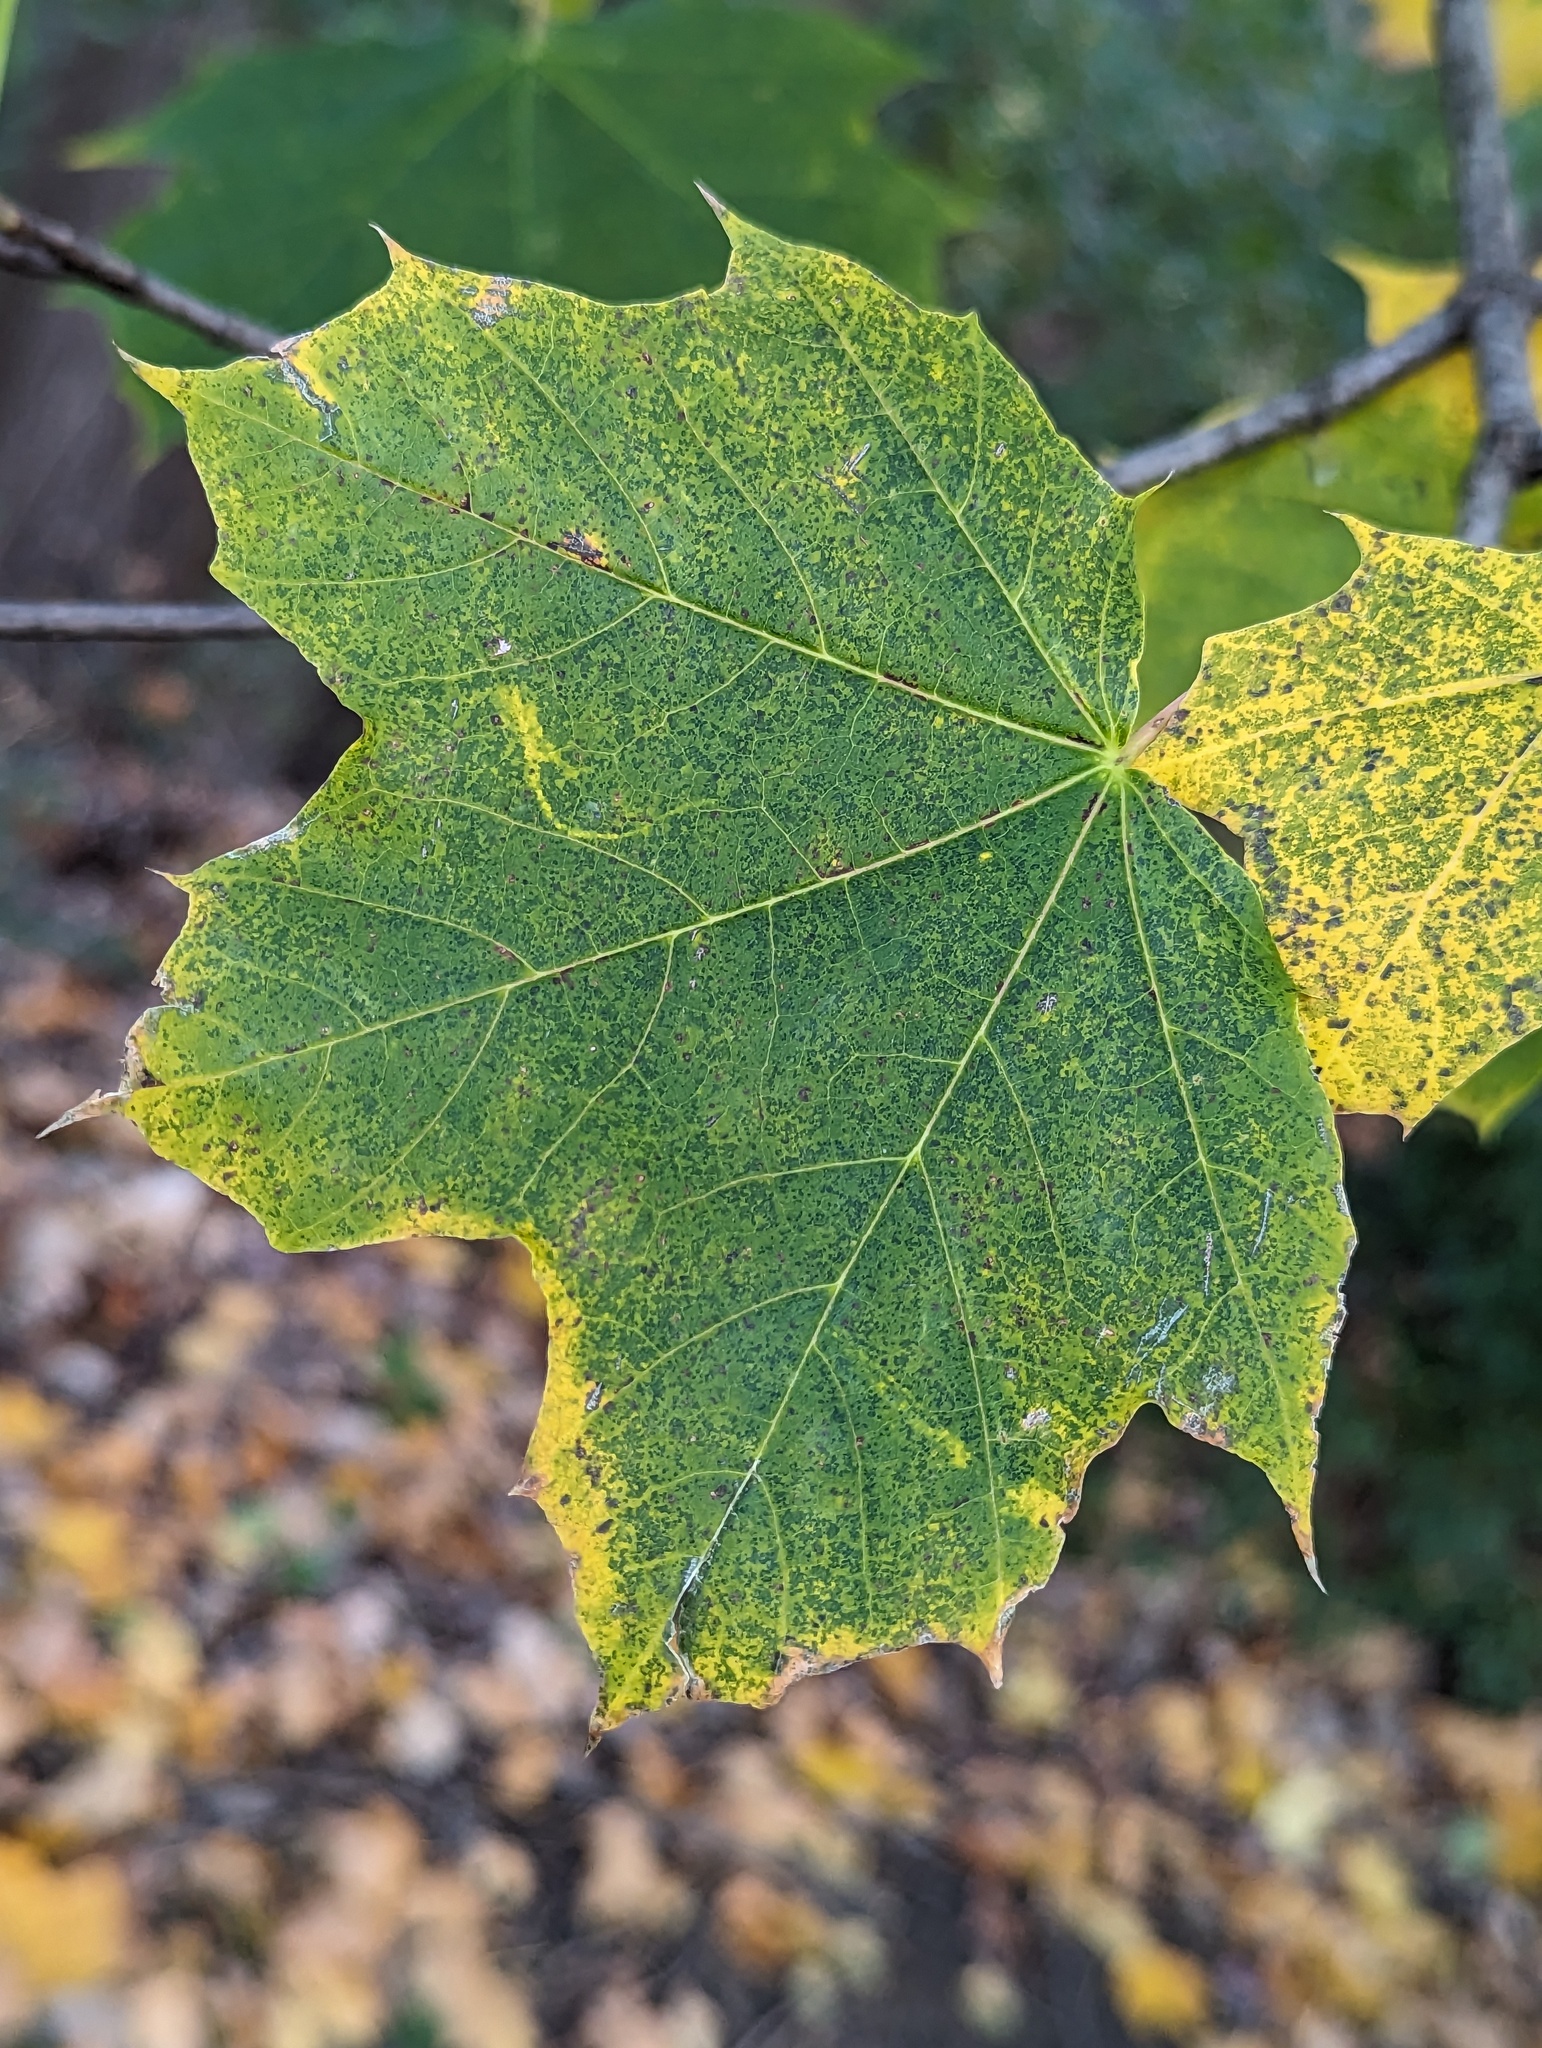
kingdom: Plantae
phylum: Tracheophyta
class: Magnoliopsida
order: Sapindales
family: Sapindaceae
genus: Acer
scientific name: Acer platanoides
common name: Norway maple
